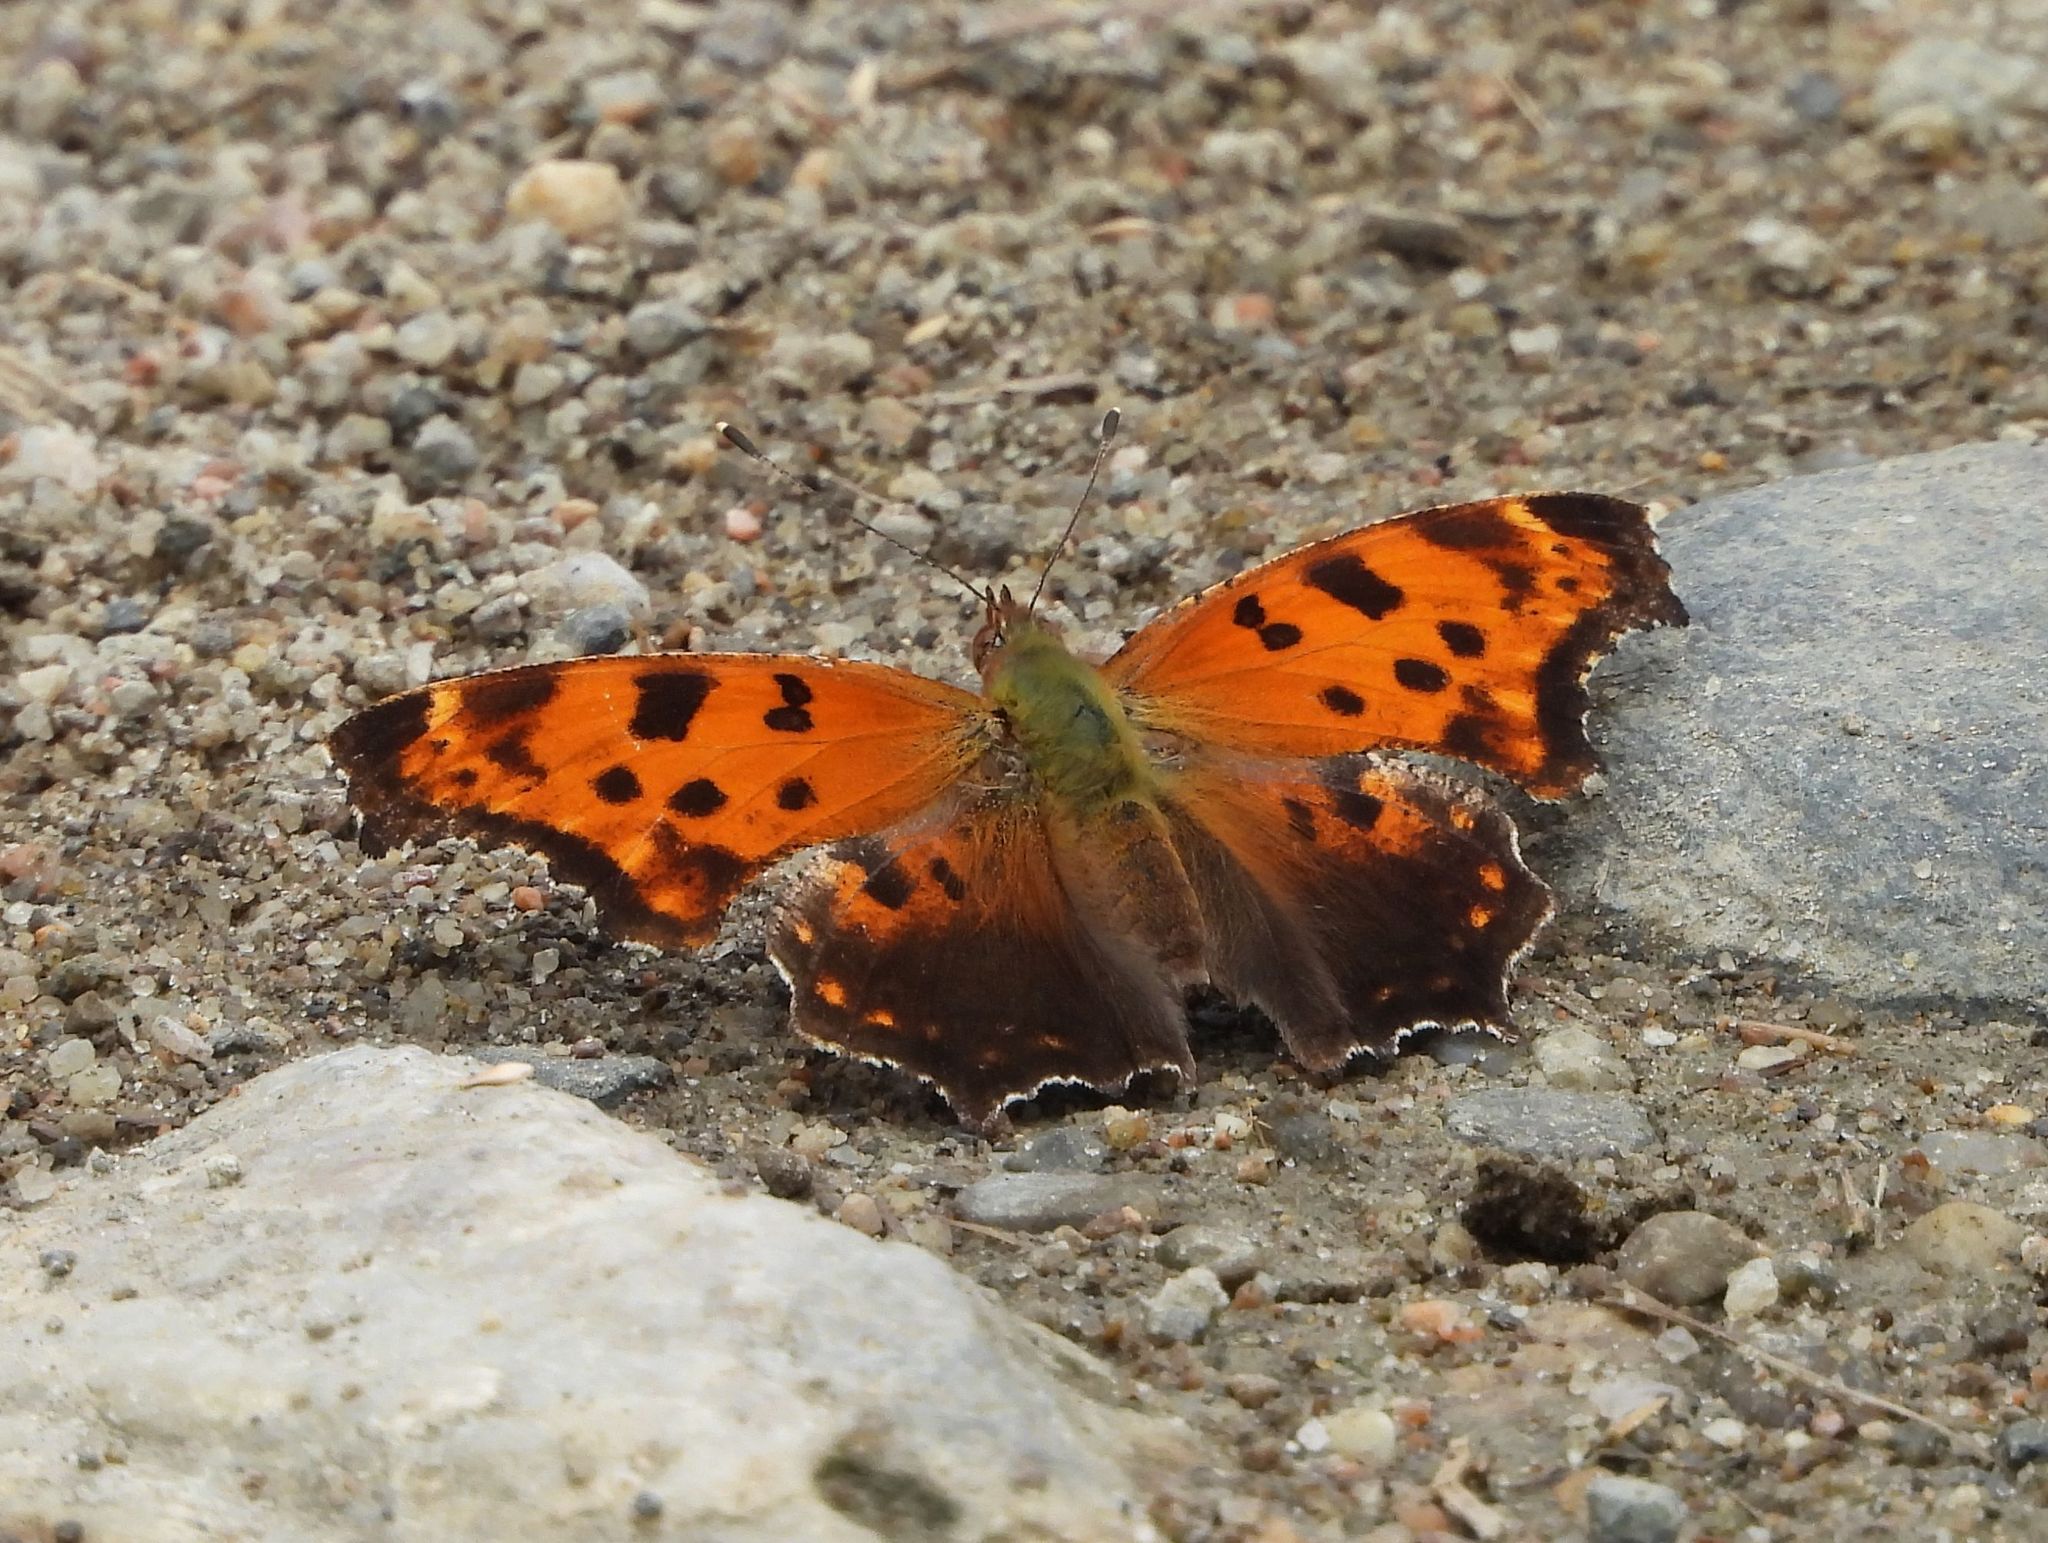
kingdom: Animalia
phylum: Arthropoda
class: Insecta
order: Lepidoptera
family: Nymphalidae
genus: Polygonia
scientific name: Polygonia comma
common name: Eastern comma
